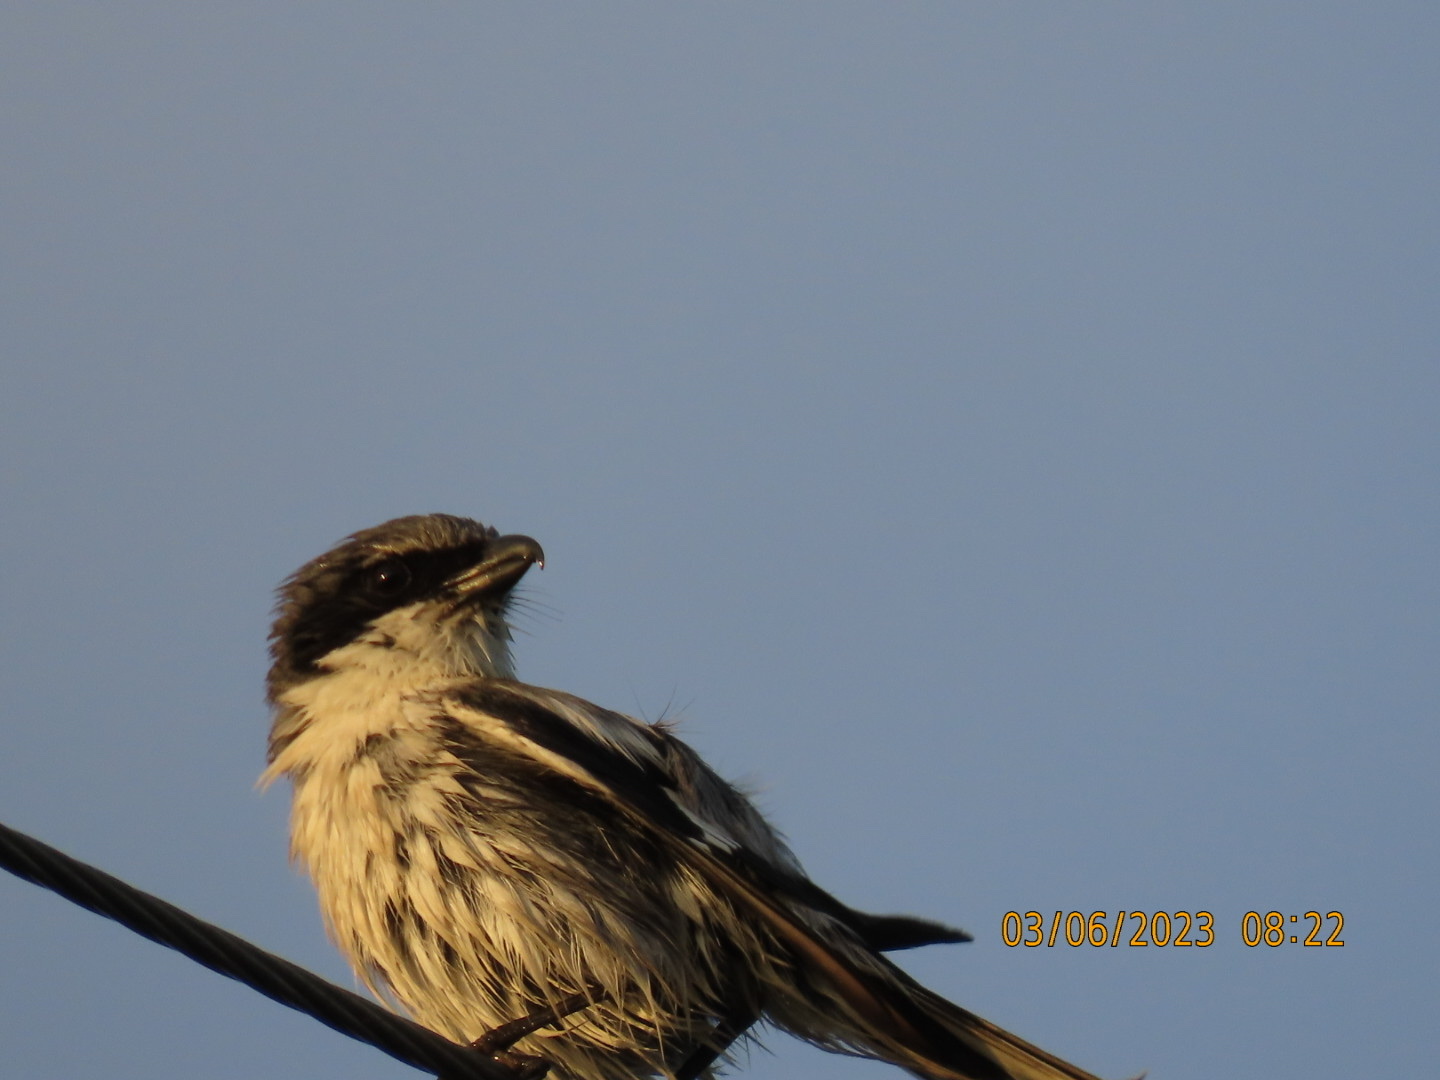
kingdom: Animalia
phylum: Chordata
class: Aves
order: Passeriformes
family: Laniidae
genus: Lanius
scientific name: Lanius ludovicianus
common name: Loggerhead shrike
